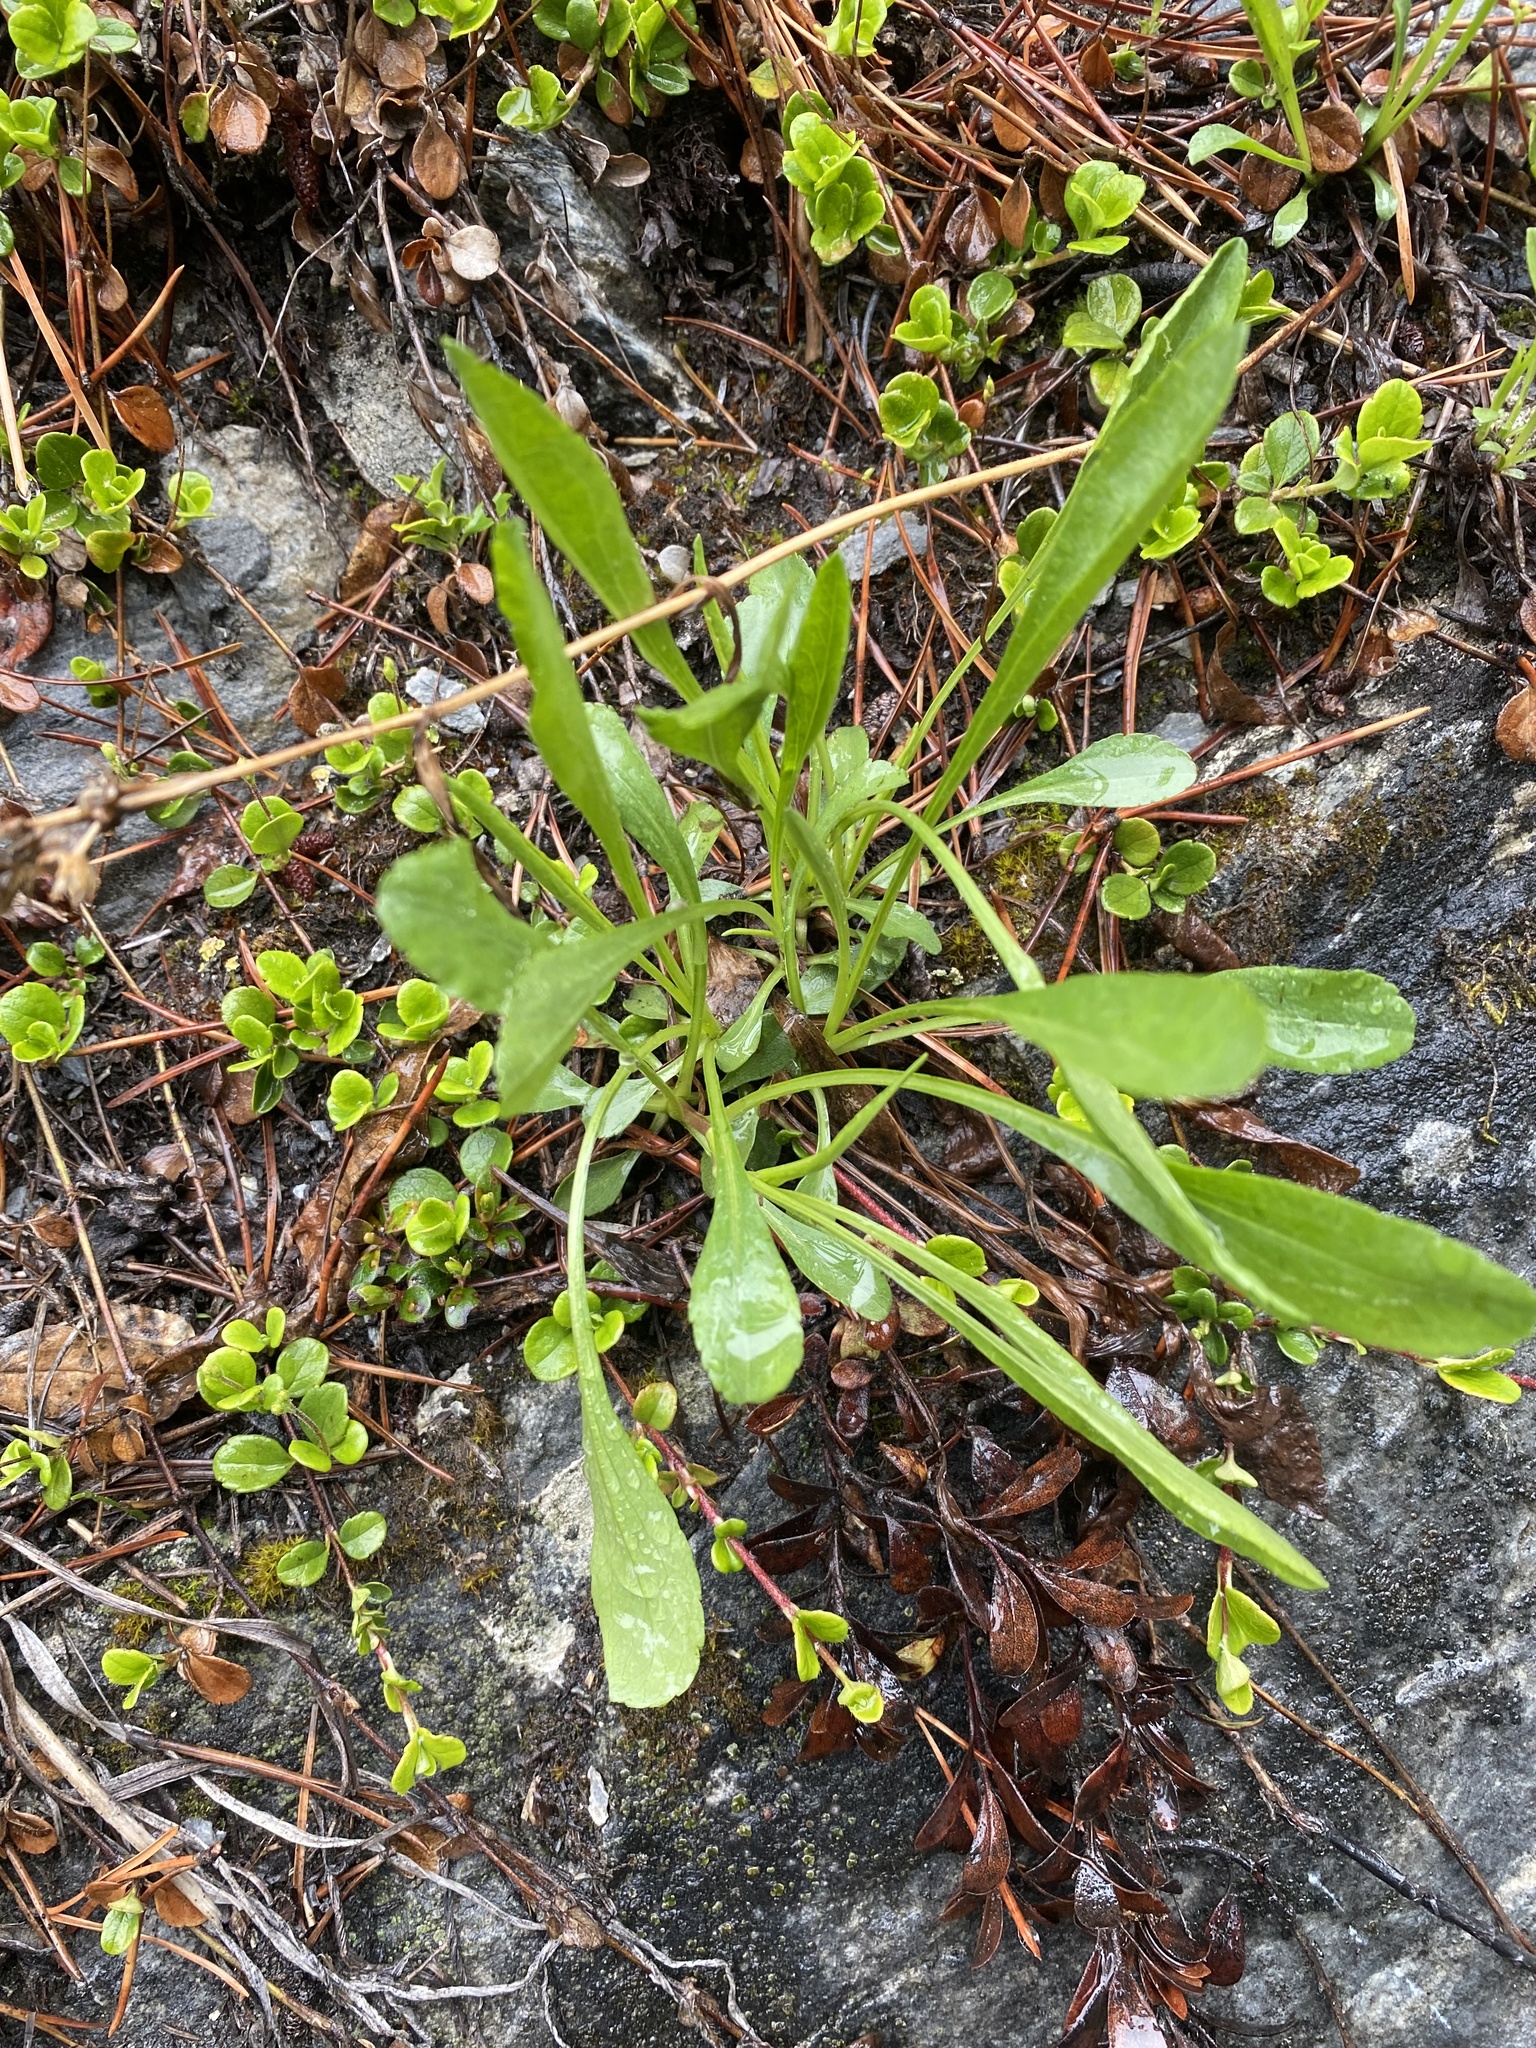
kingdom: Plantae
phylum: Tracheophyta
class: Magnoliopsida
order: Asterales
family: Asteraceae
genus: Solidago
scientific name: Solidago glutinosa
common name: Decumbent goldenrod
